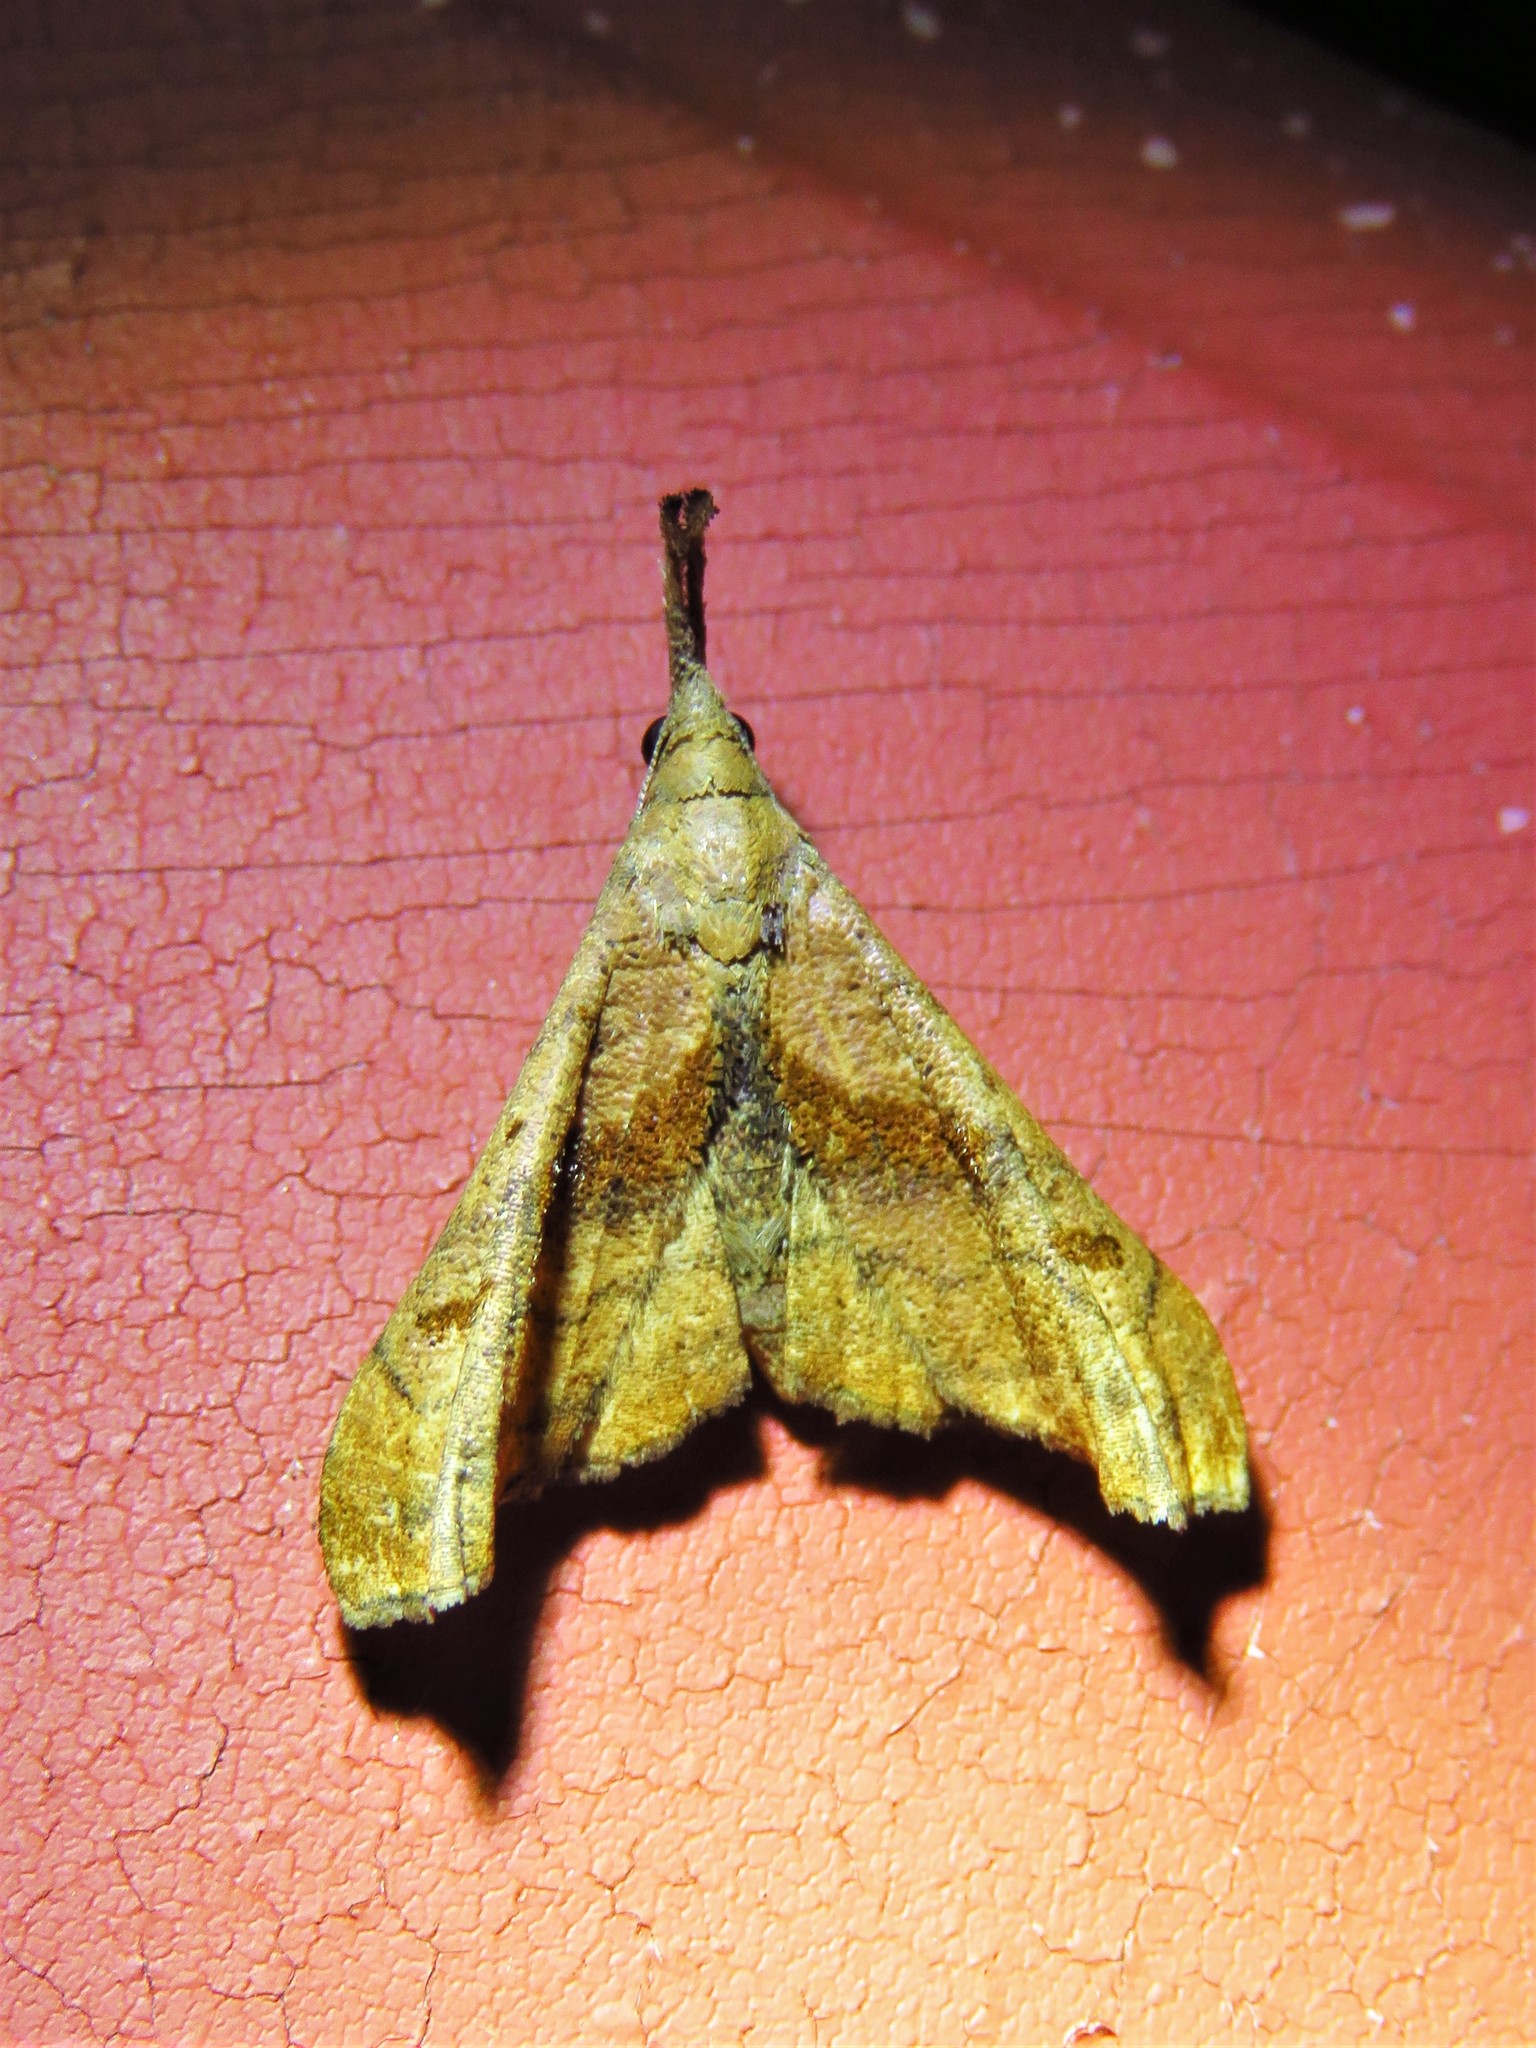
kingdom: Animalia
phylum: Arthropoda
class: Insecta
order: Lepidoptera
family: Erebidae
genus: Palthis
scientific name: Palthis angulalis
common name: Dark-spotted palthis moth
